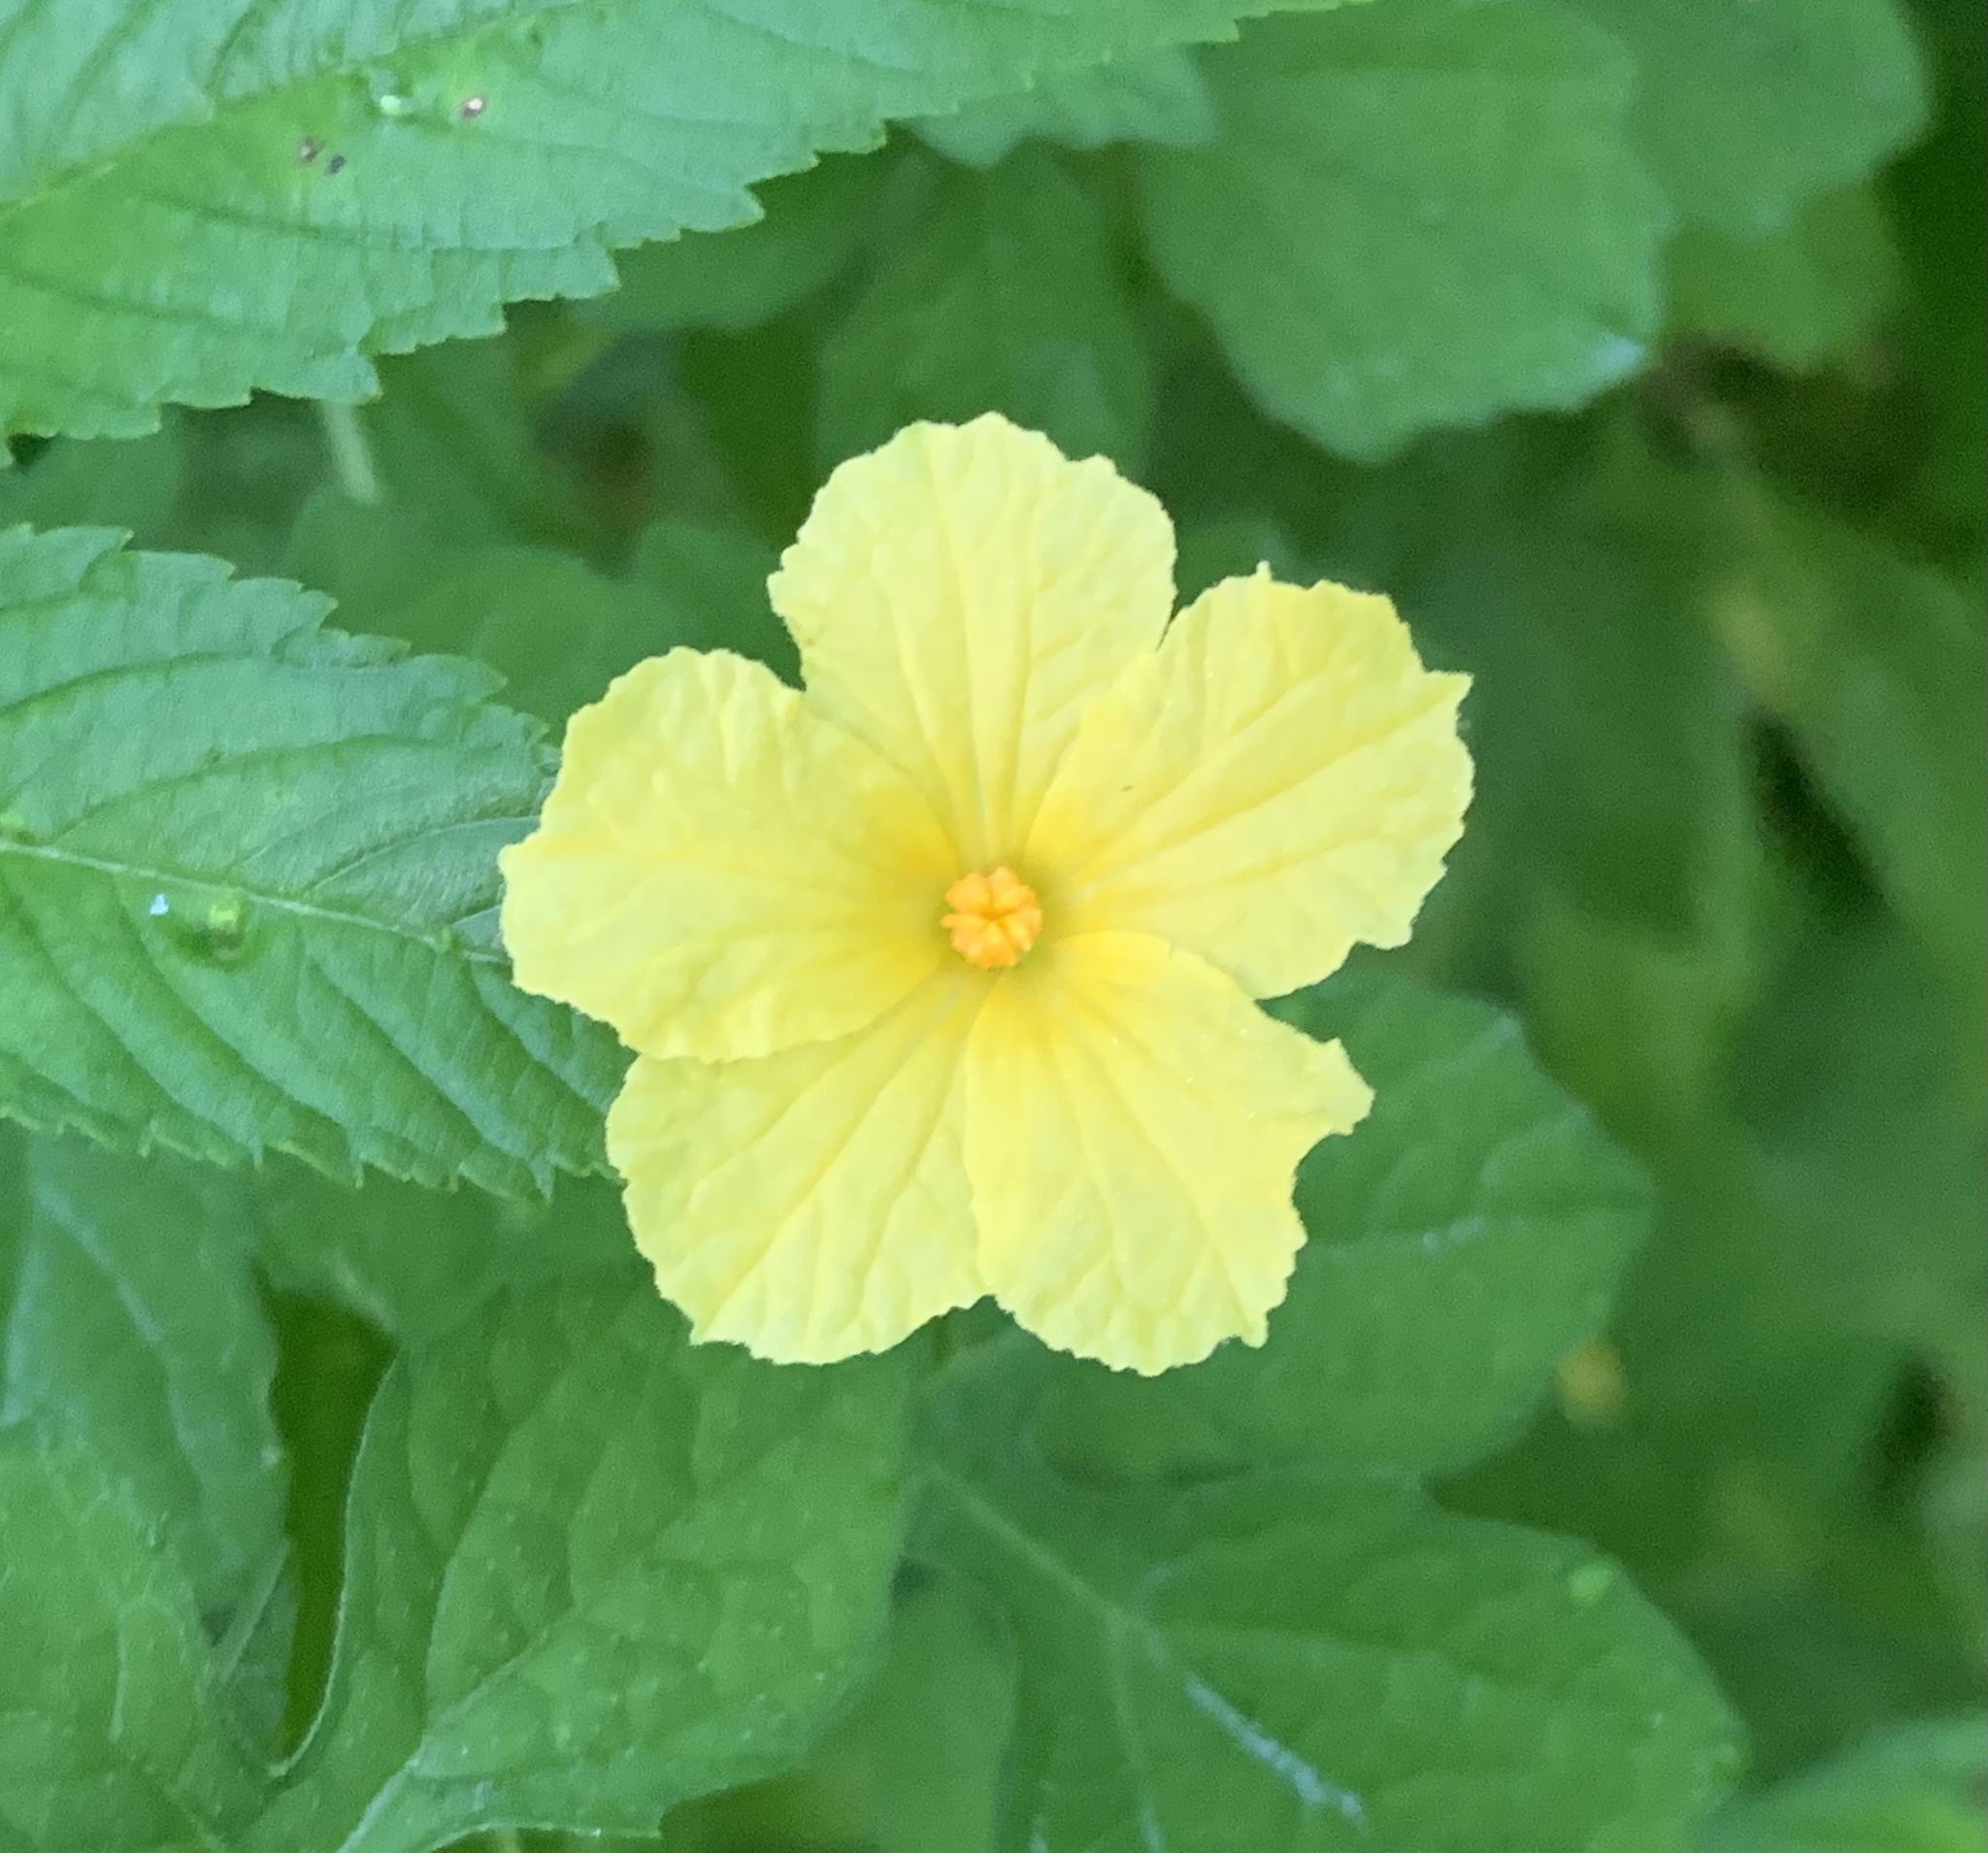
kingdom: Plantae
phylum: Tracheophyta
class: Magnoliopsida
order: Cucurbitales
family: Cucurbitaceae
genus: Momordica
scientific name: Momordica charantia
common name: Balsampear
